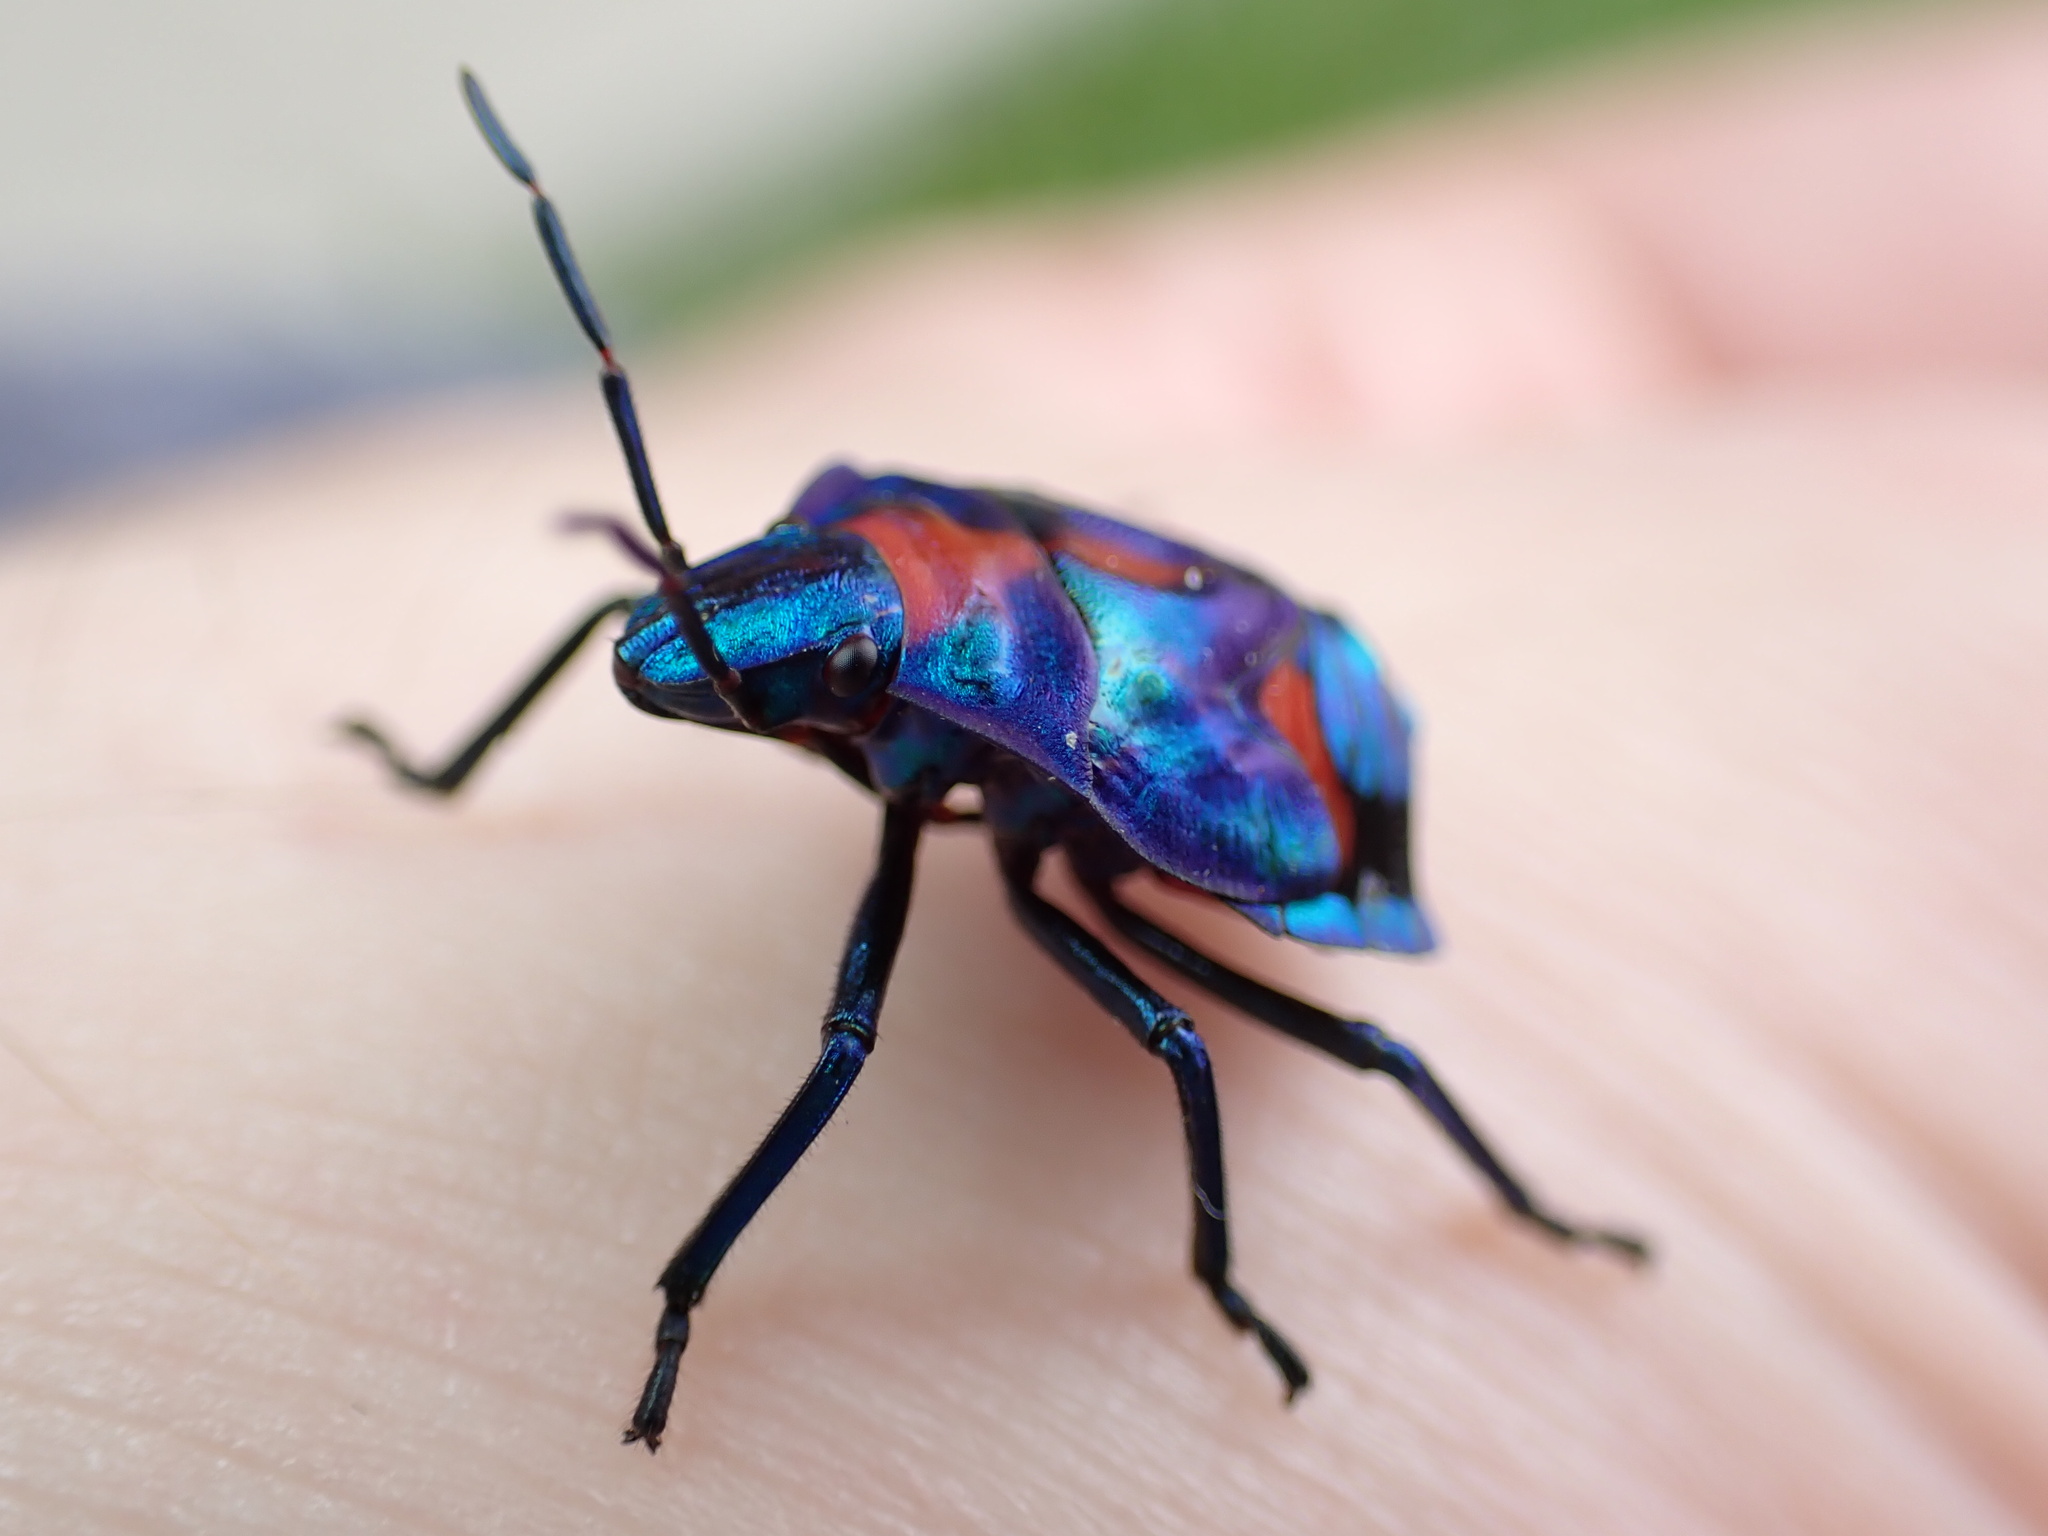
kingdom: Animalia
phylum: Arthropoda
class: Insecta
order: Hemiptera
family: Scutelleridae
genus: Tectocoris
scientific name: Tectocoris diophthalmus
